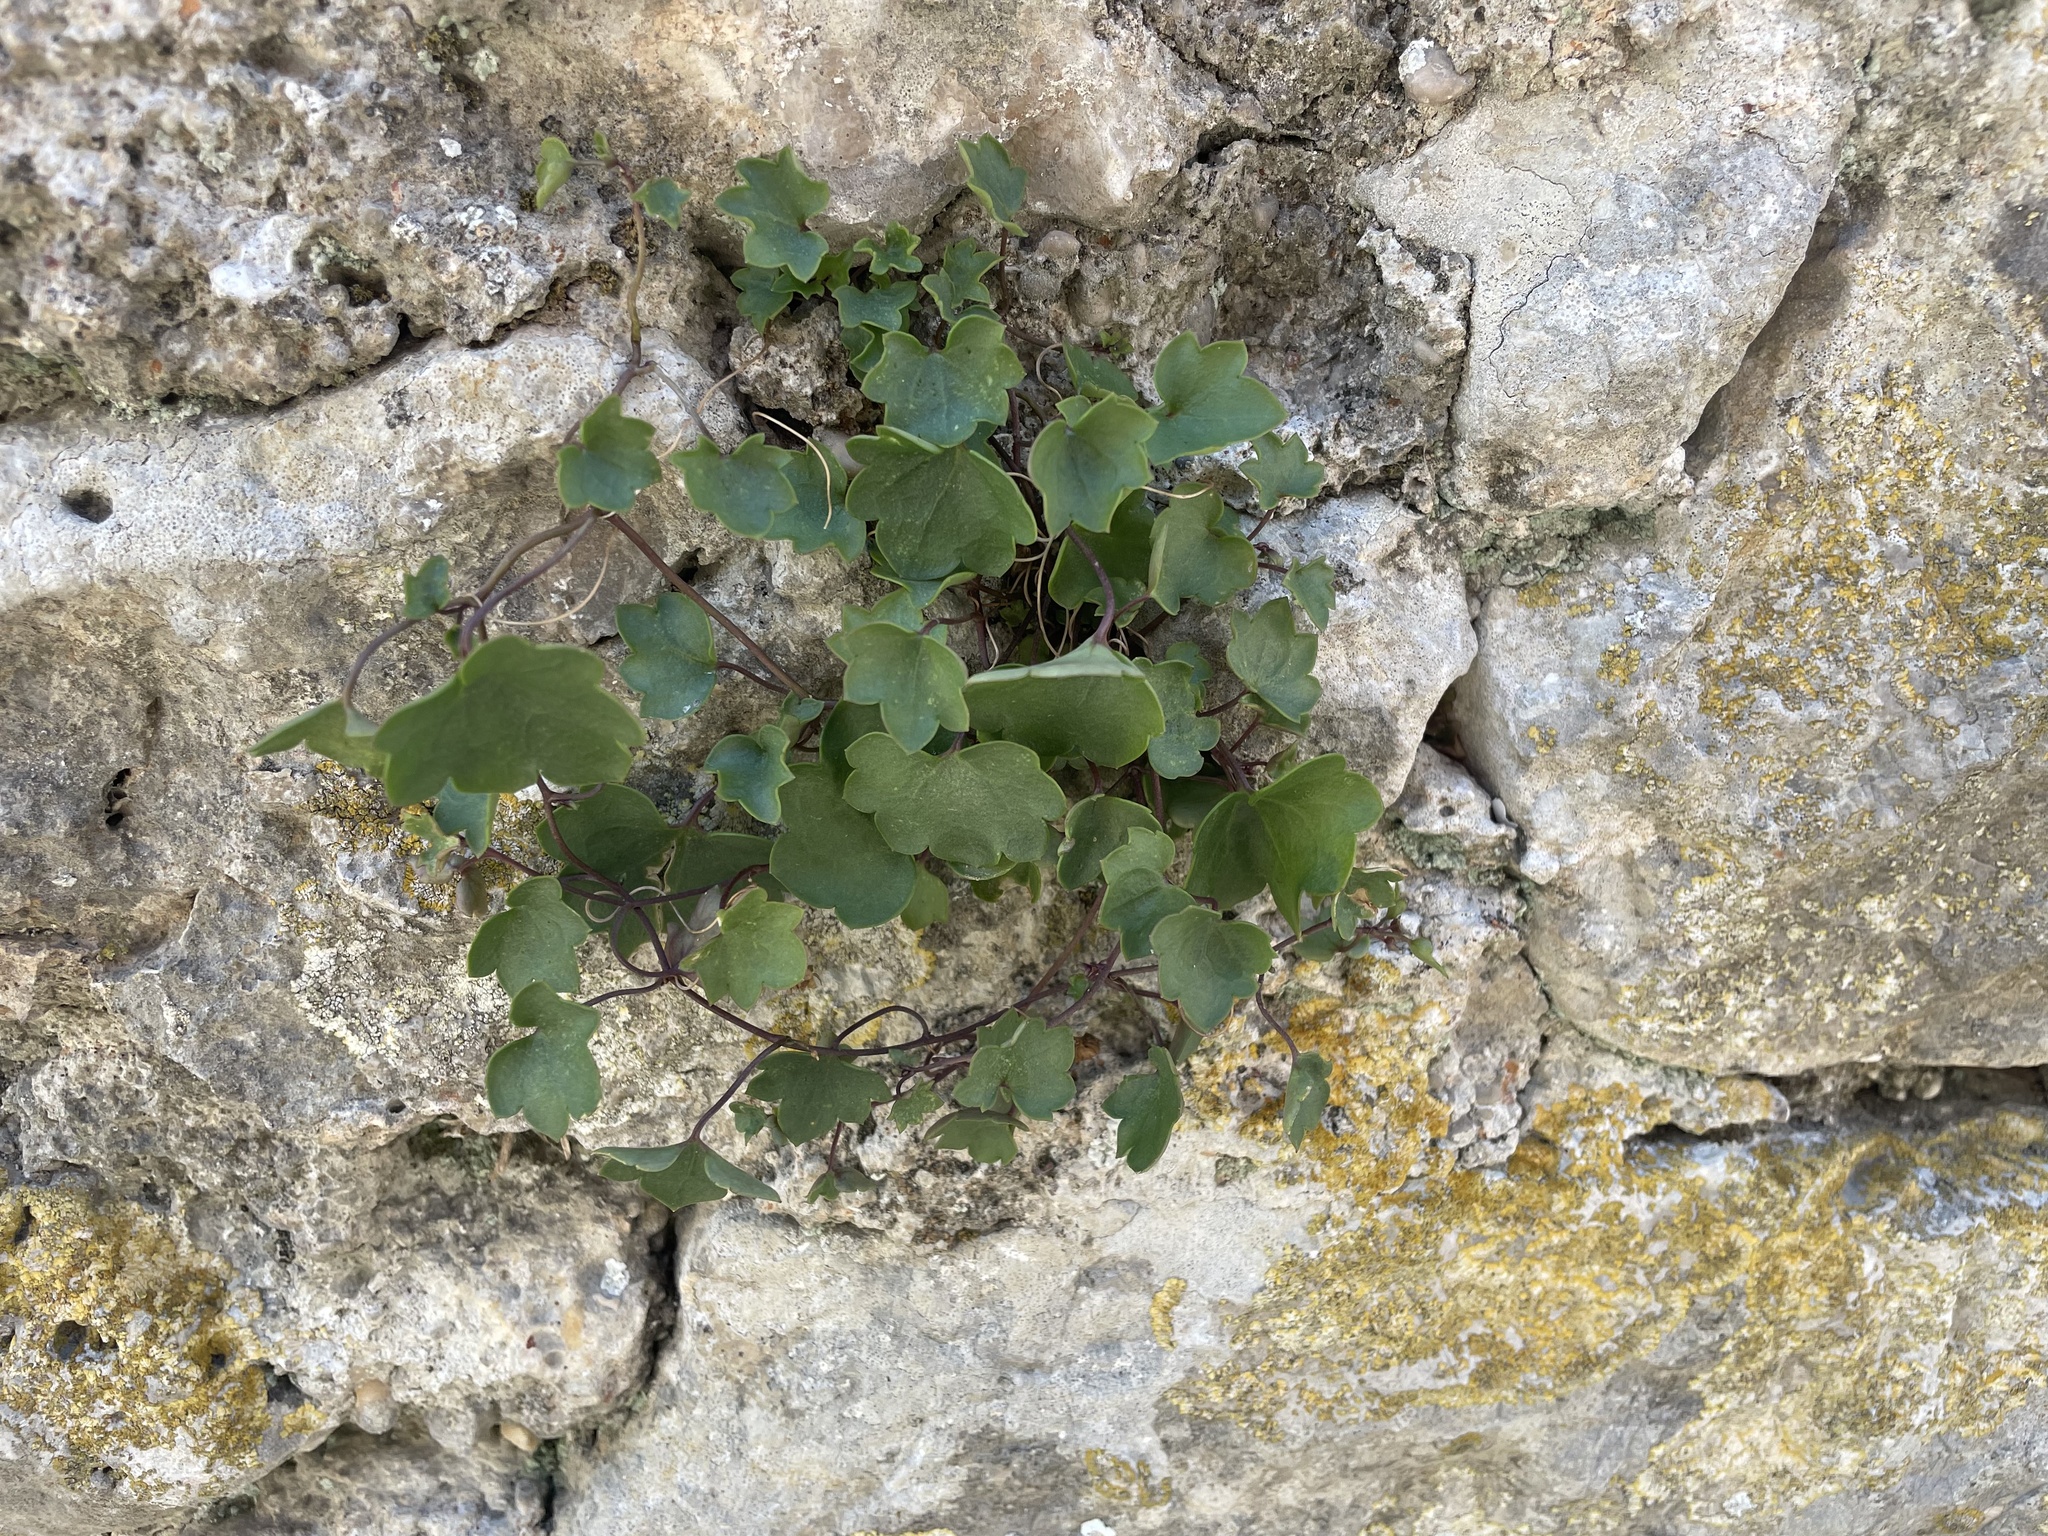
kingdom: Plantae
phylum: Tracheophyta
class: Magnoliopsida
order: Lamiales
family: Plantaginaceae
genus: Cymbalaria
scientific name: Cymbalaria muralis
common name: Ivy-leaved toadflax
